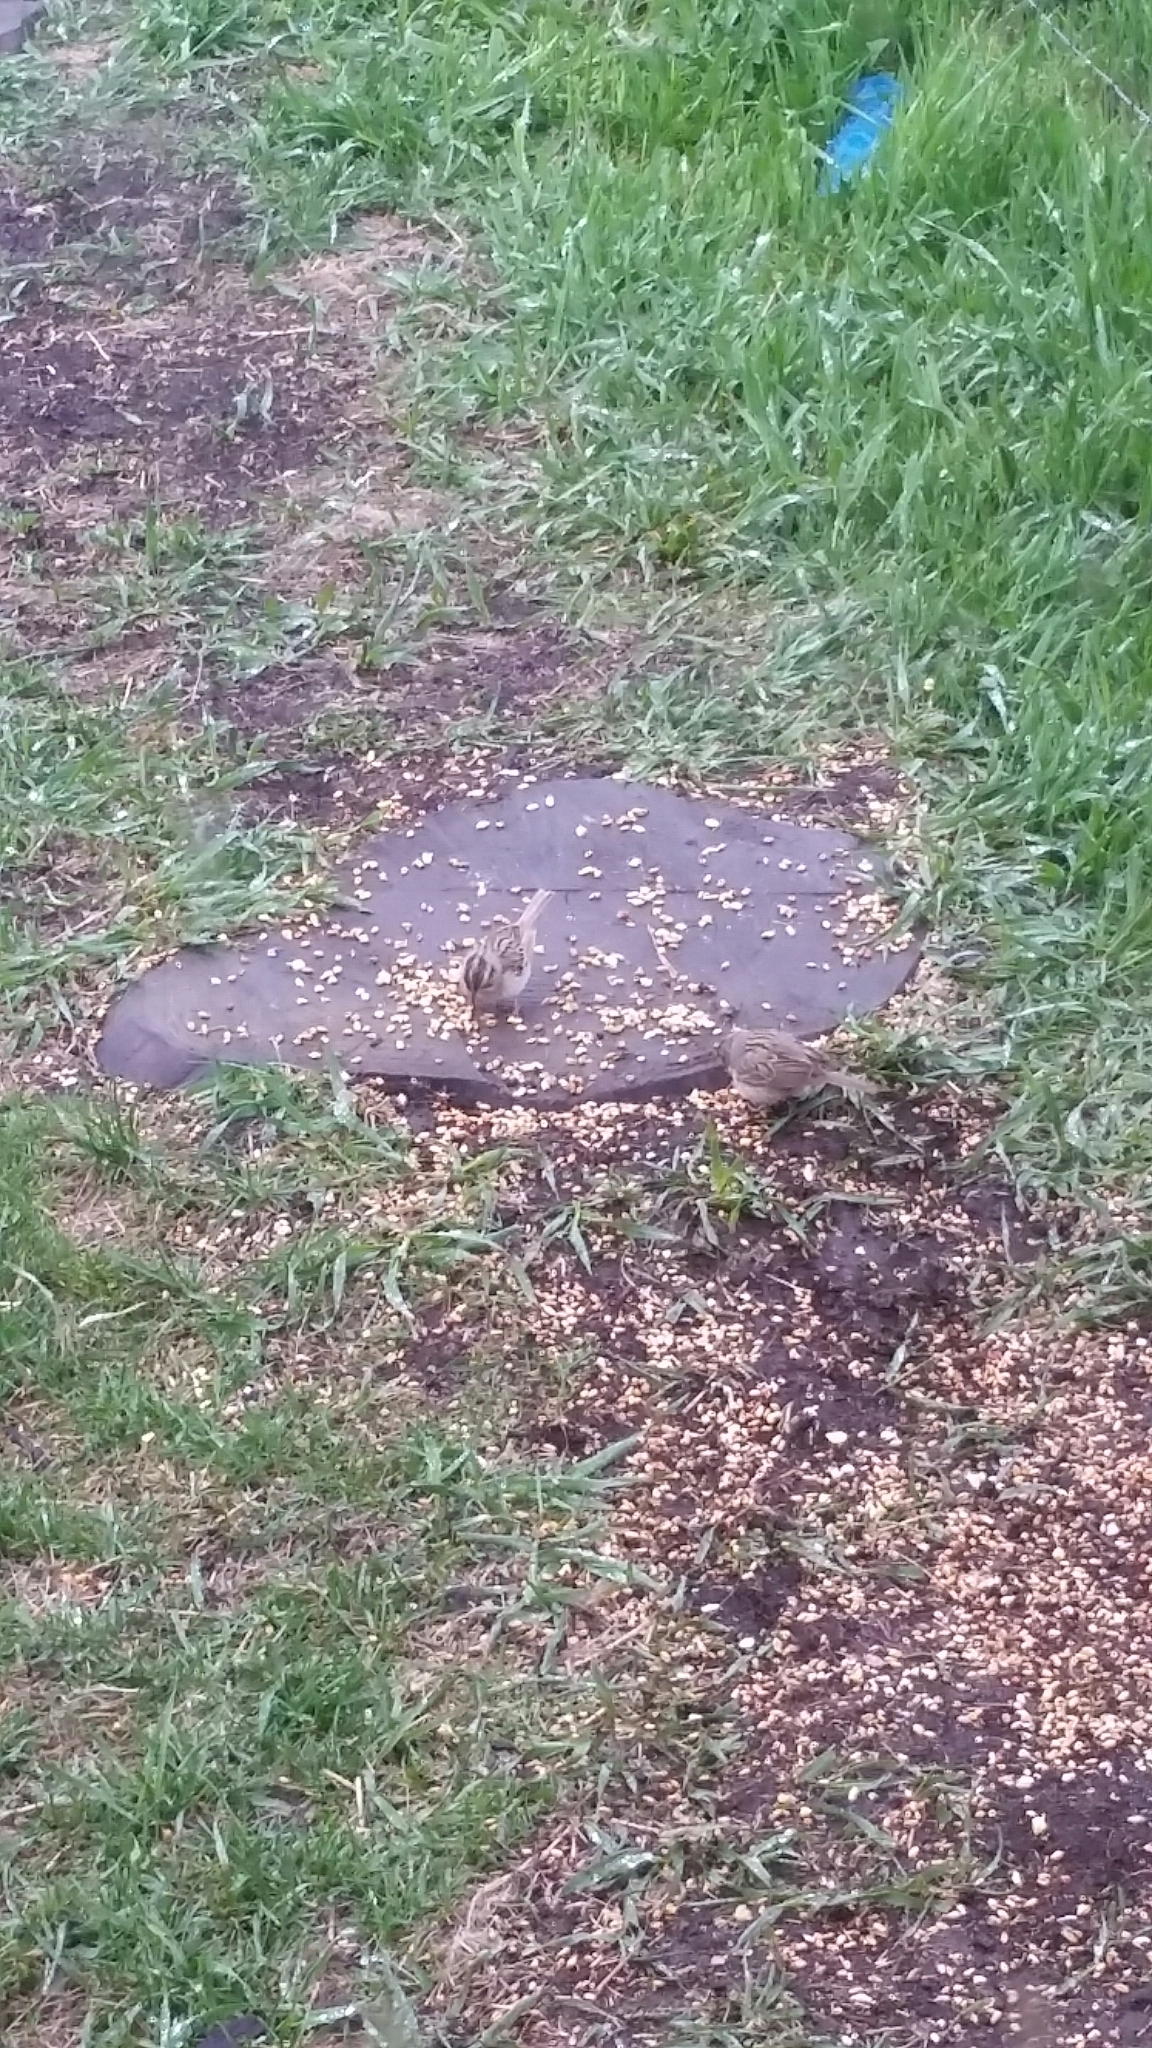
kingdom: Animalia
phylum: Chordata
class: Aves
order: Passeriformes
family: Passerellidae
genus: Spizella
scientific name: Spizella pallida
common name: Clay-colored sparrow
